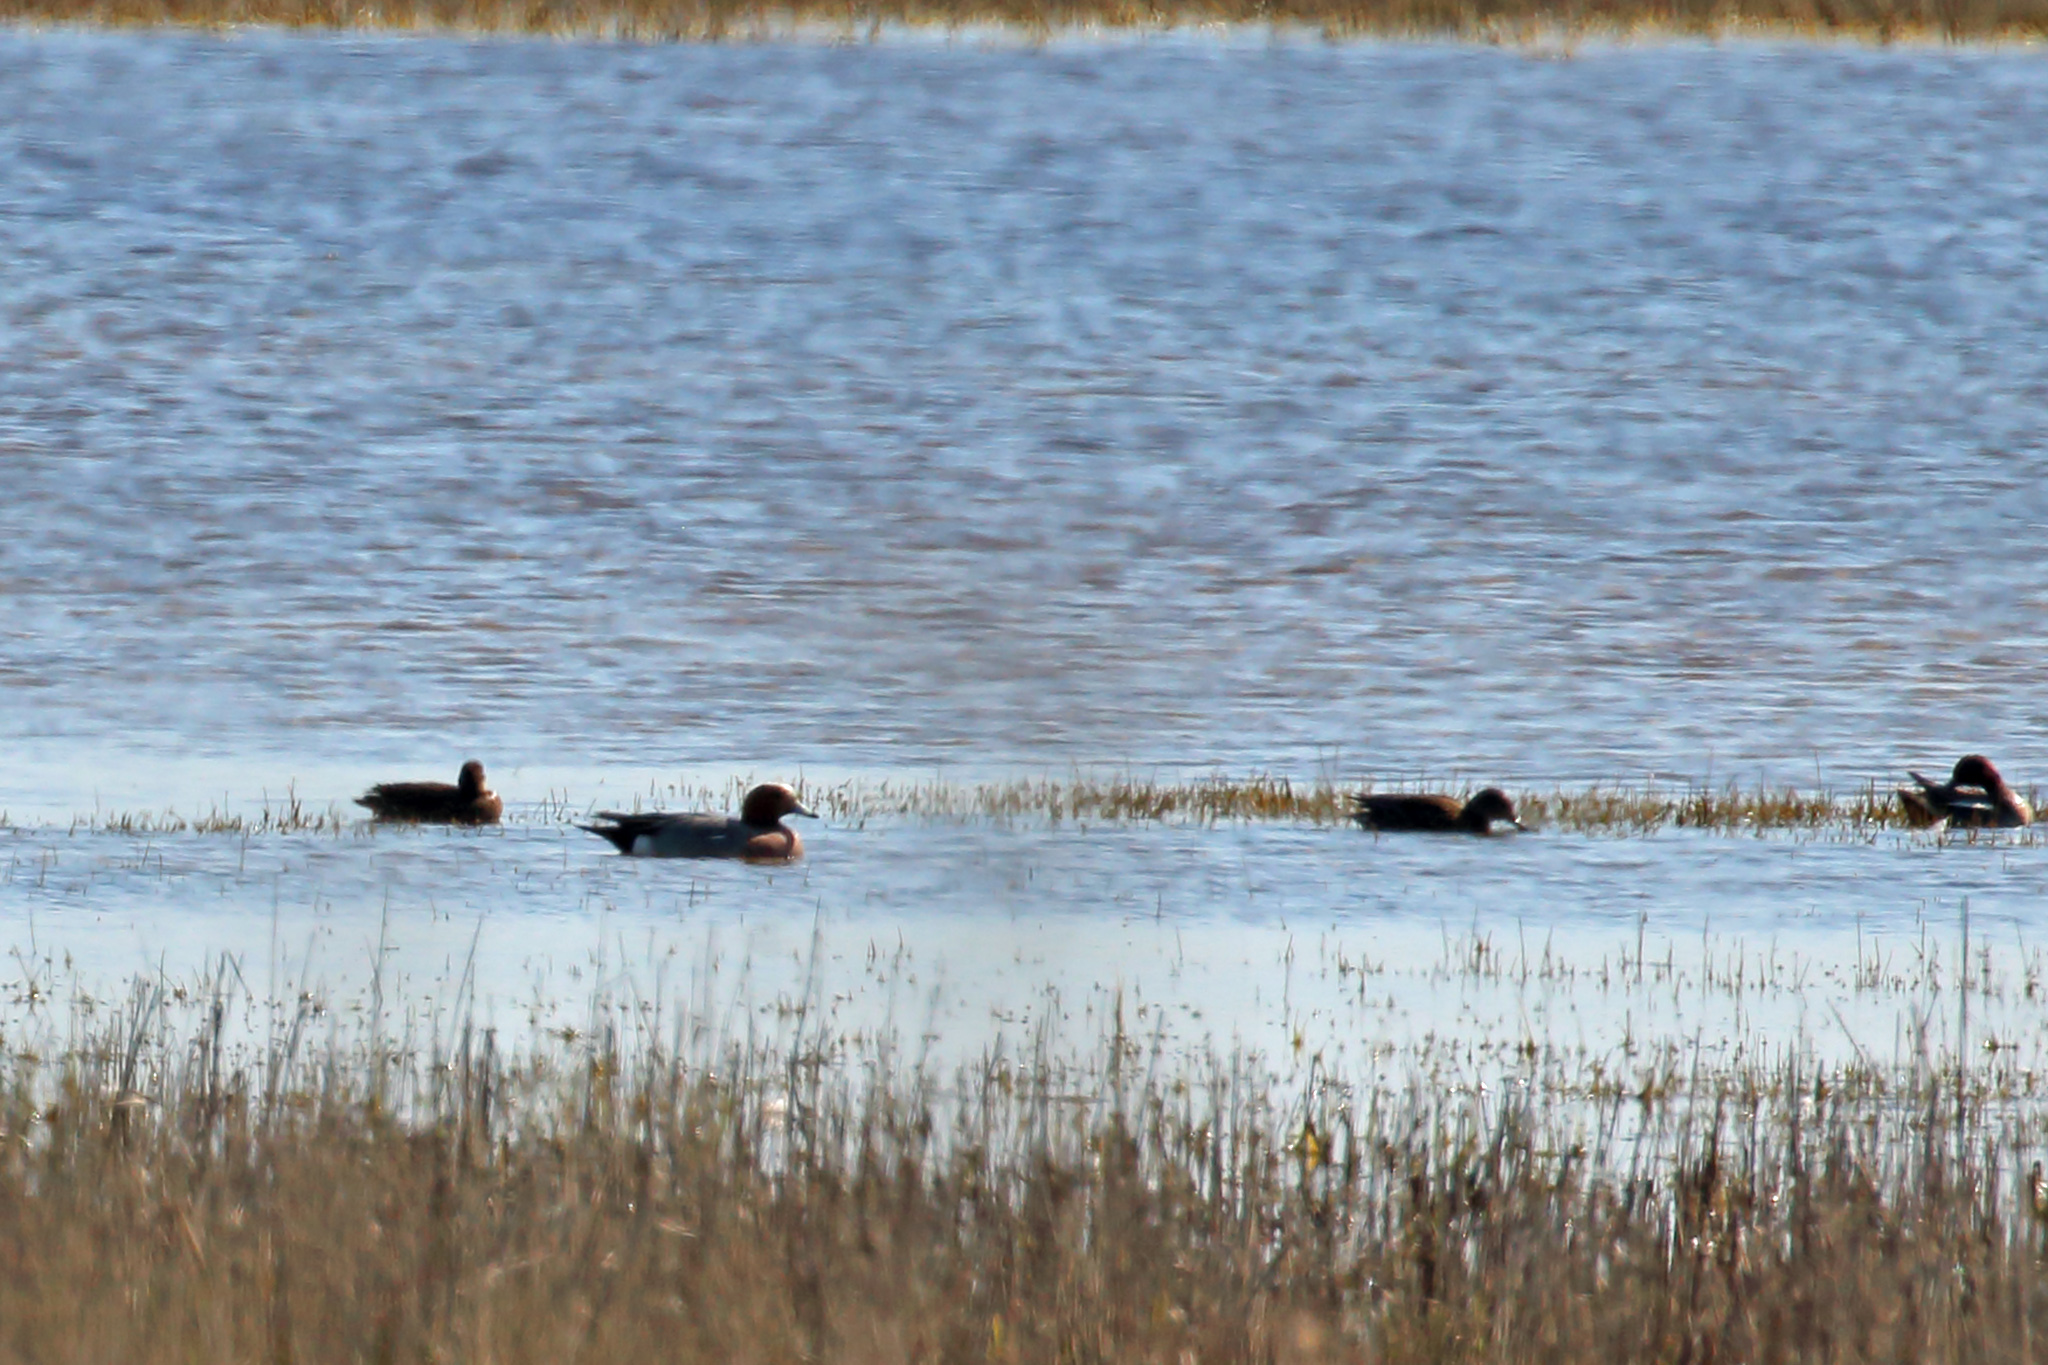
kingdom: Animalia
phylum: Chordata
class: Aves
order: Anseriformes
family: Anatidae
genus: Mareca
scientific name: Mareca penelope
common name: Eurasian wigeon
